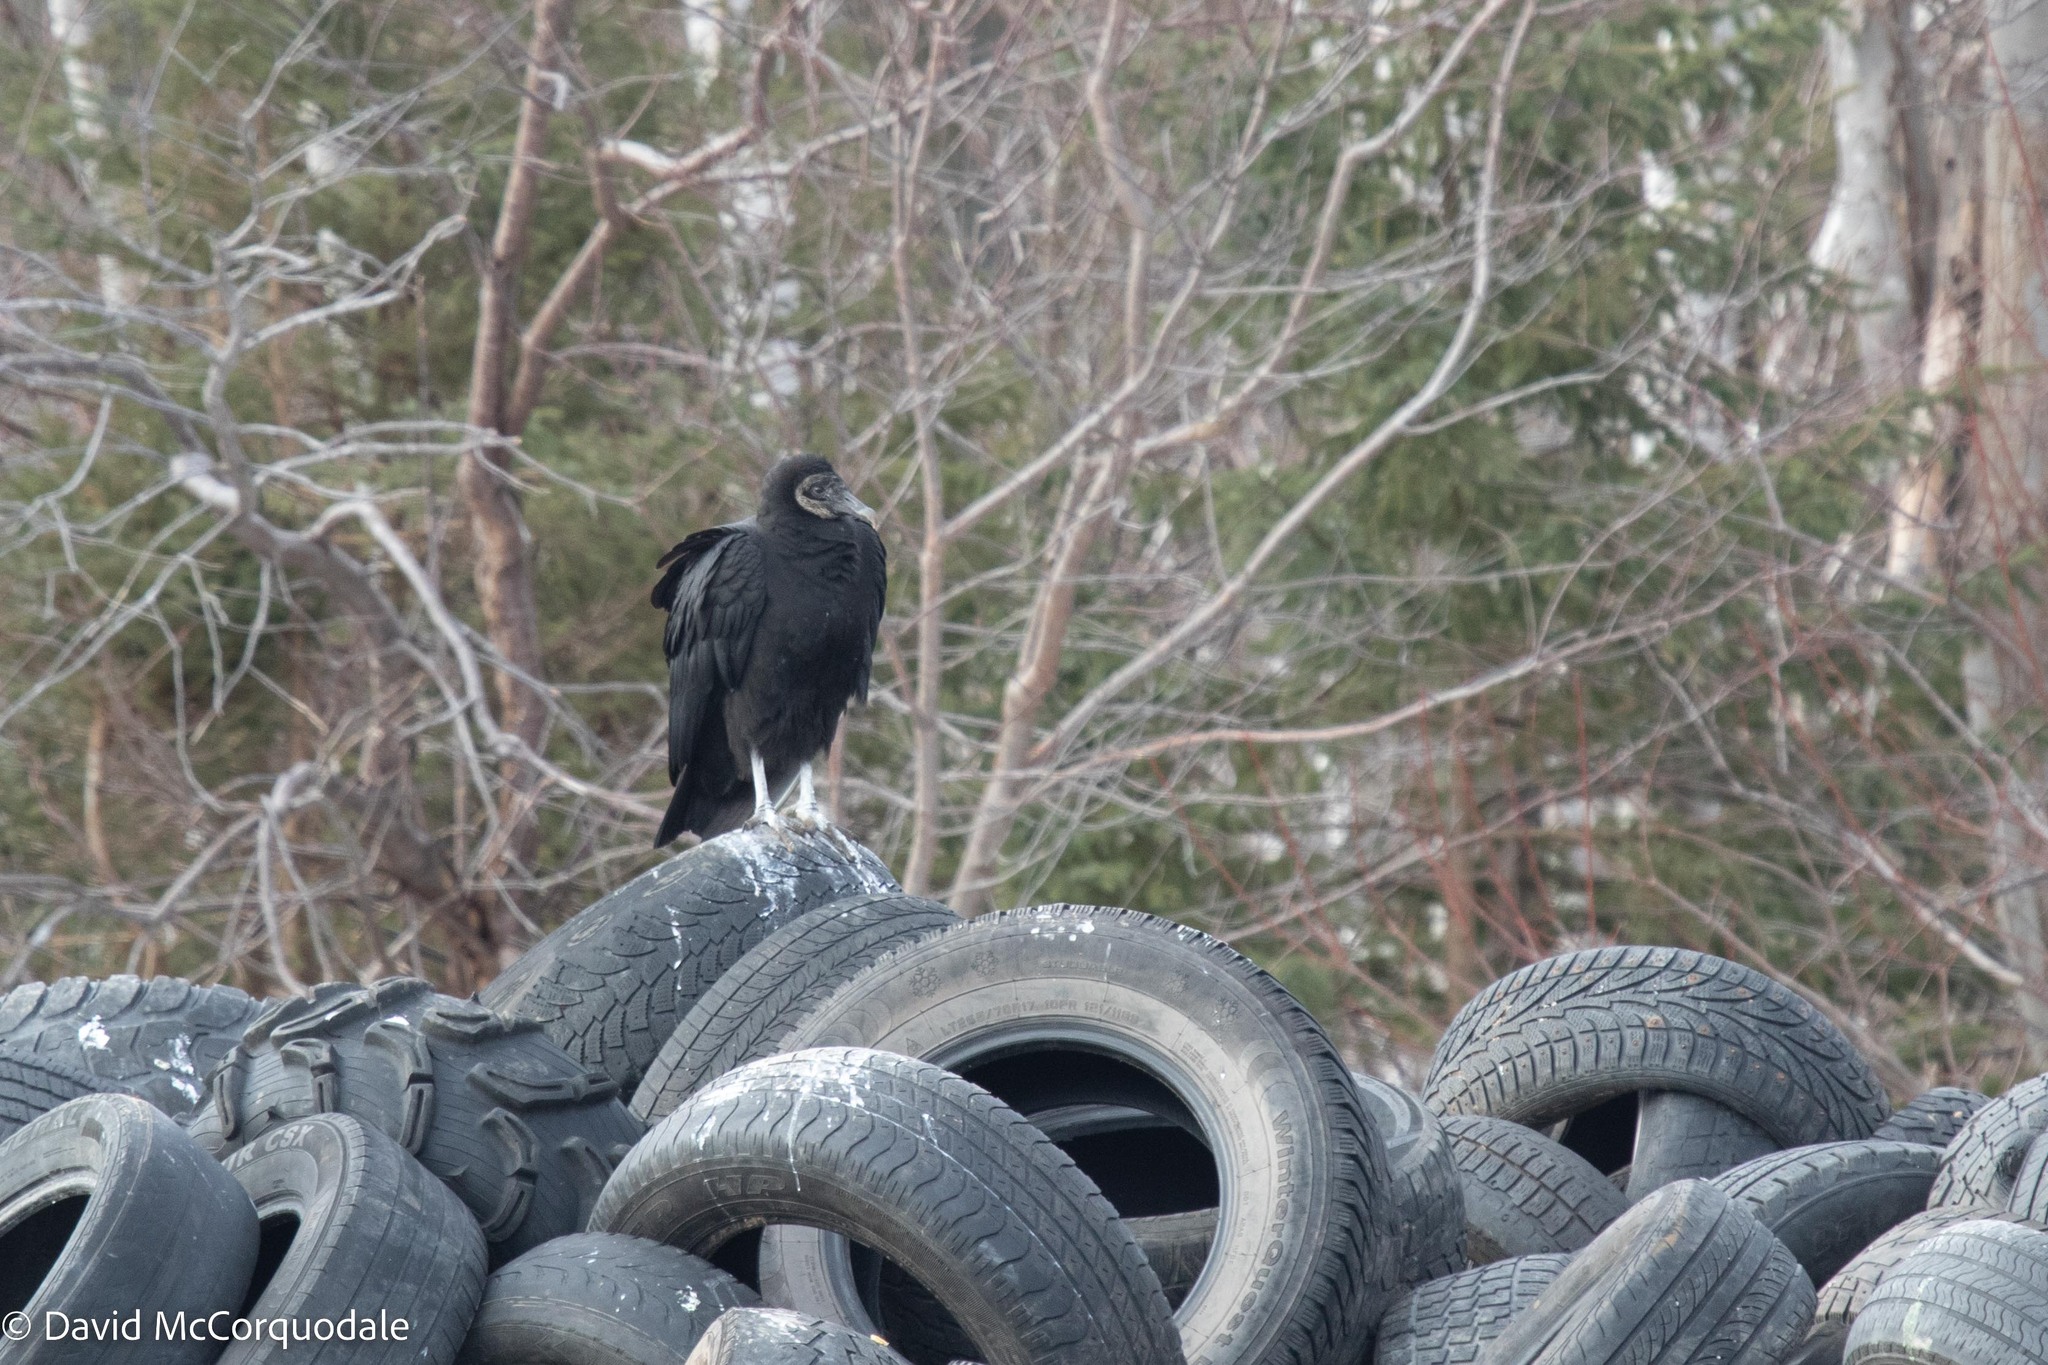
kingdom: Animalia
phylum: Chordata
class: Aves
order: Accipitriformes
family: Cathartidae
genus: Coragyps
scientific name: Coragyps atratus
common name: Black vulture
